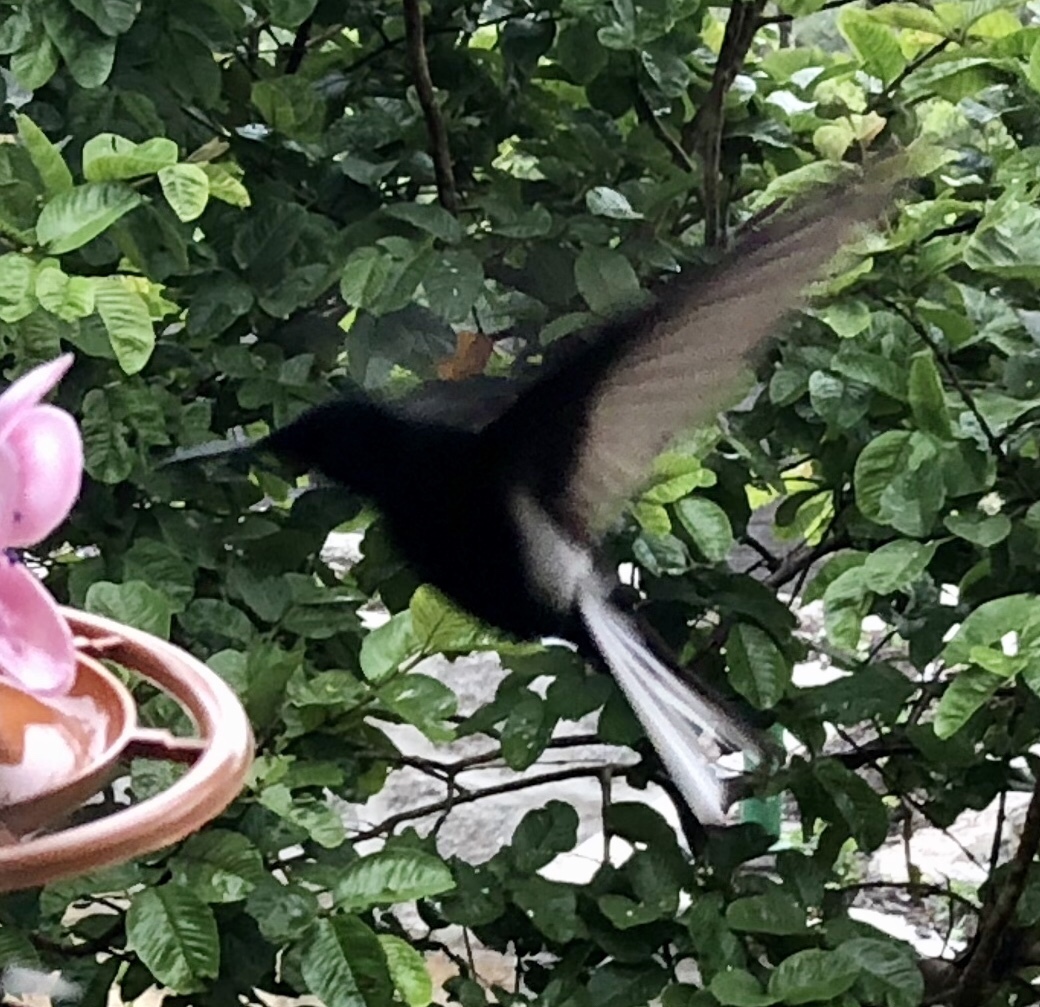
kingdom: Animalia
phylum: Chordata
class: Aves
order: Apodiformes
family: Trochilidae
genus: Florisuga
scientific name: Florisuga fusca
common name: Black jacobin
